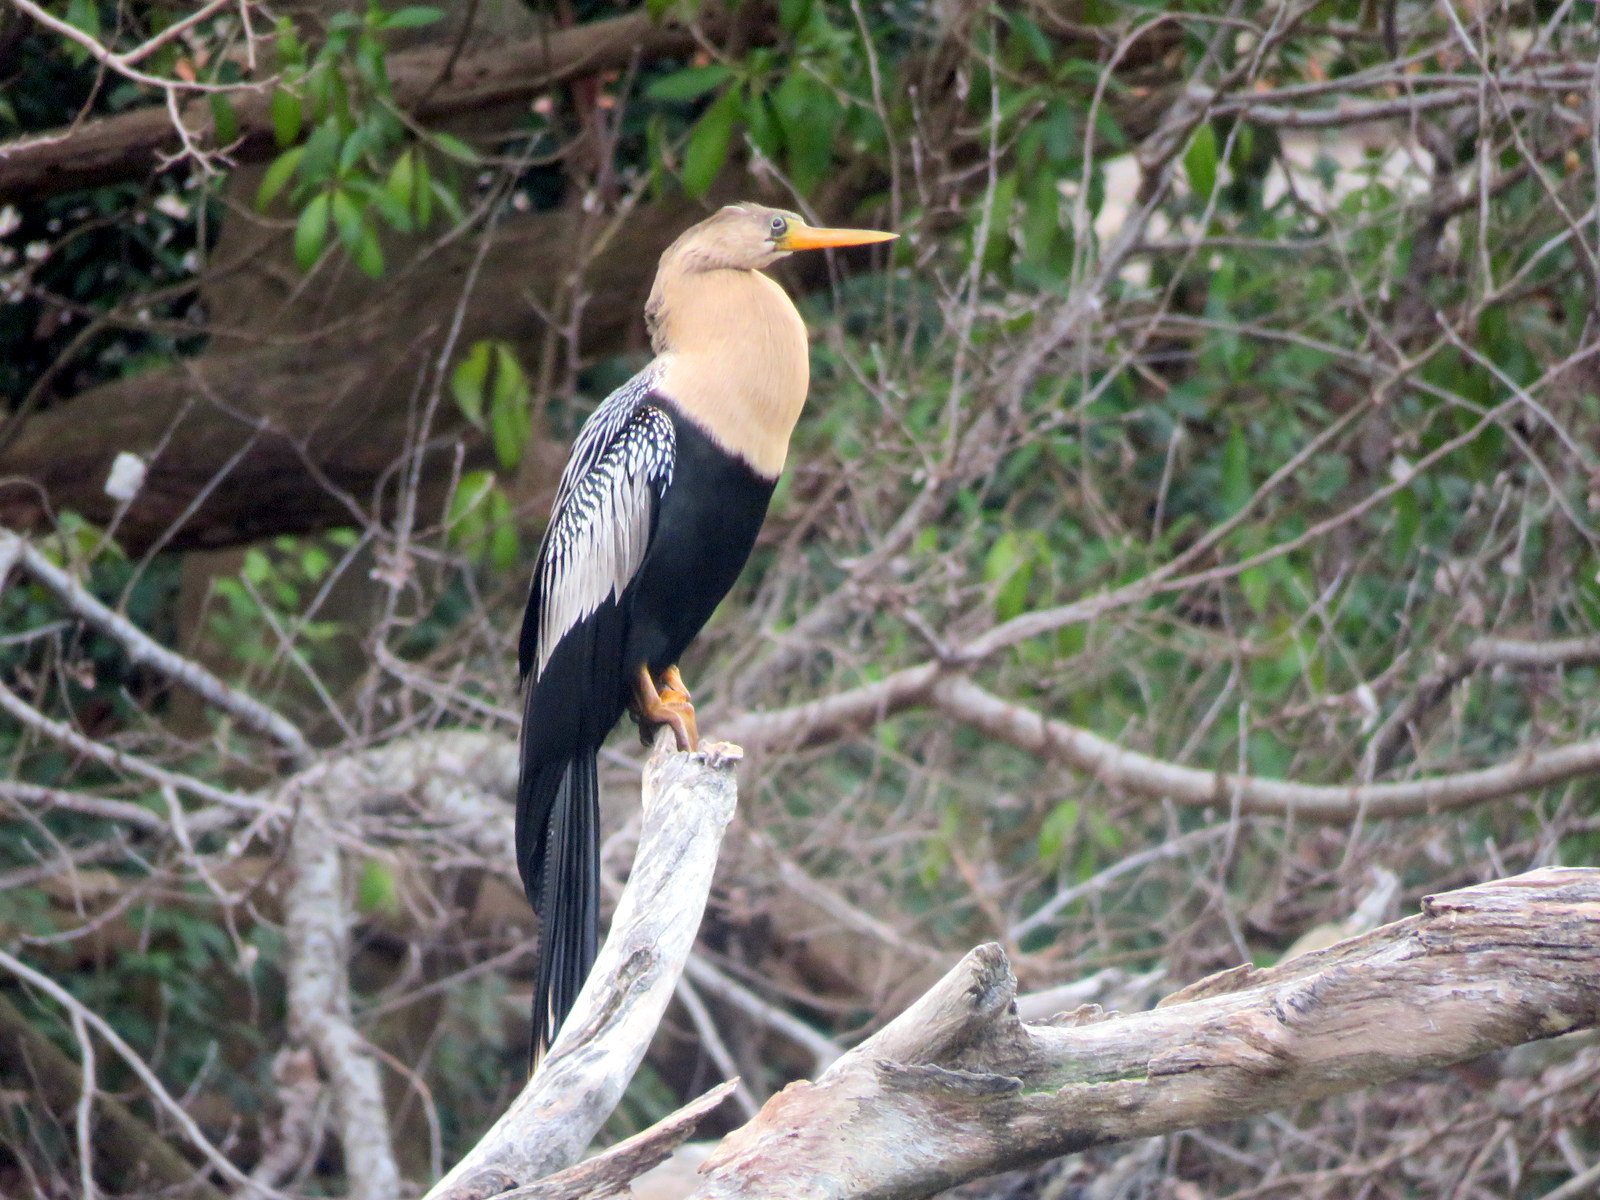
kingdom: Animalia
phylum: Chordata
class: Aves
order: Suliformes
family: Anhingidae
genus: Anhinga
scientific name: Anhinga anhinga
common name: Anhinga
